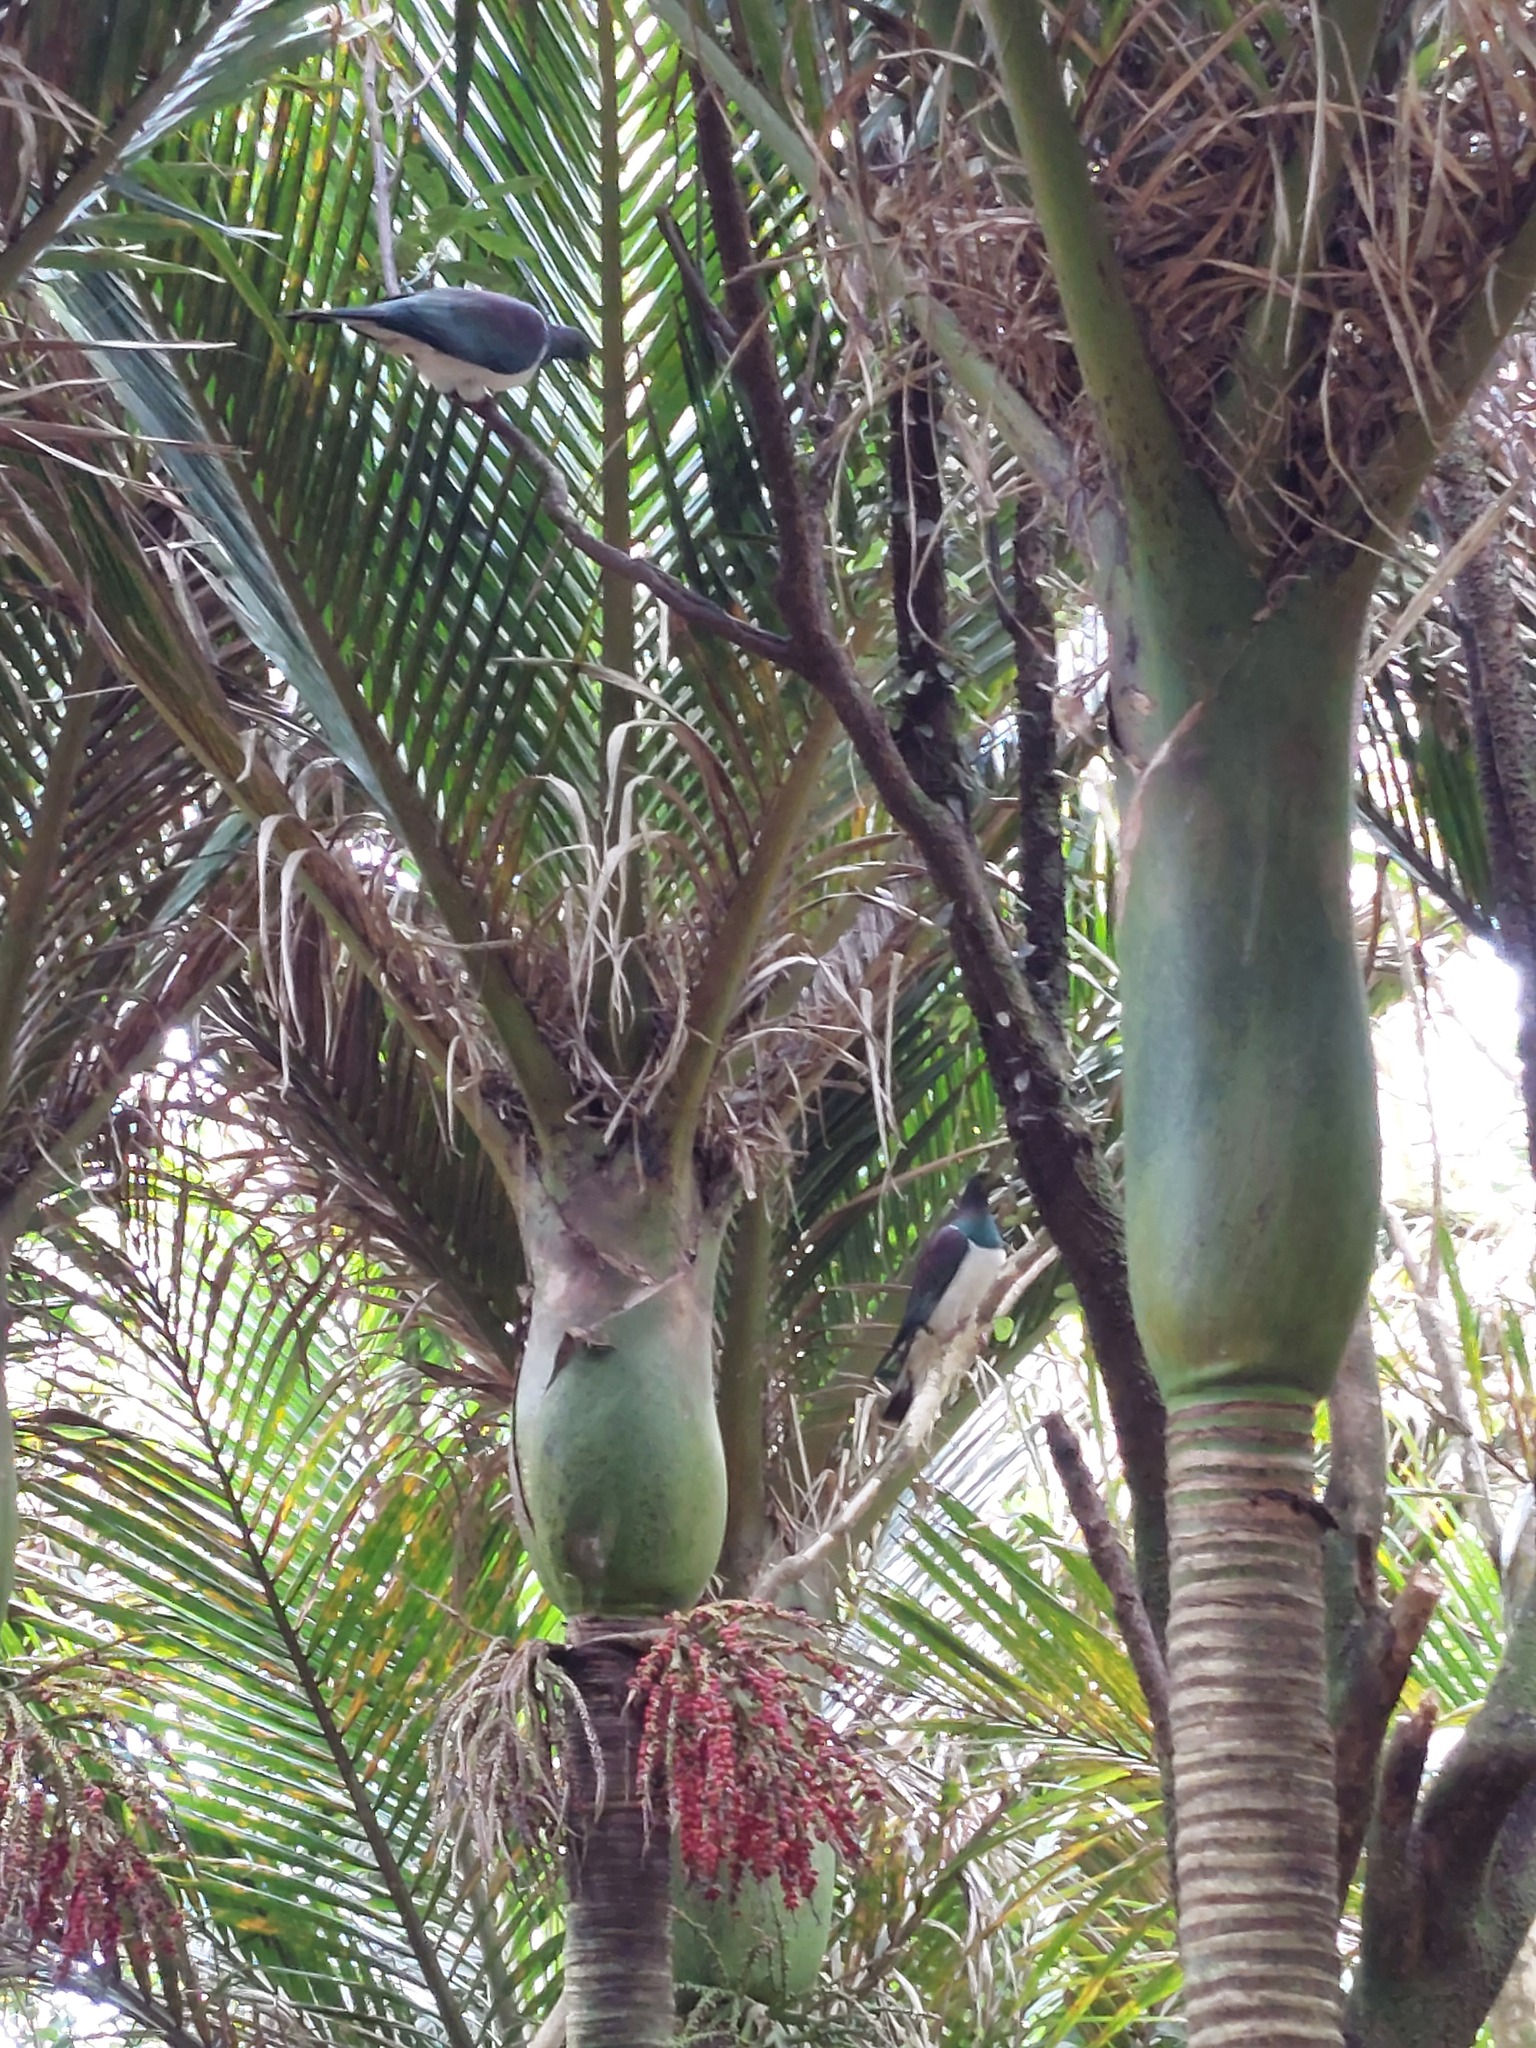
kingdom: Animalia
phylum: Chordata
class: Aves
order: Columbiformes
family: Columbidae
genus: Hemiphaga
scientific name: Hemiphaga novaeseelandiae
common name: New zealand pigeon
